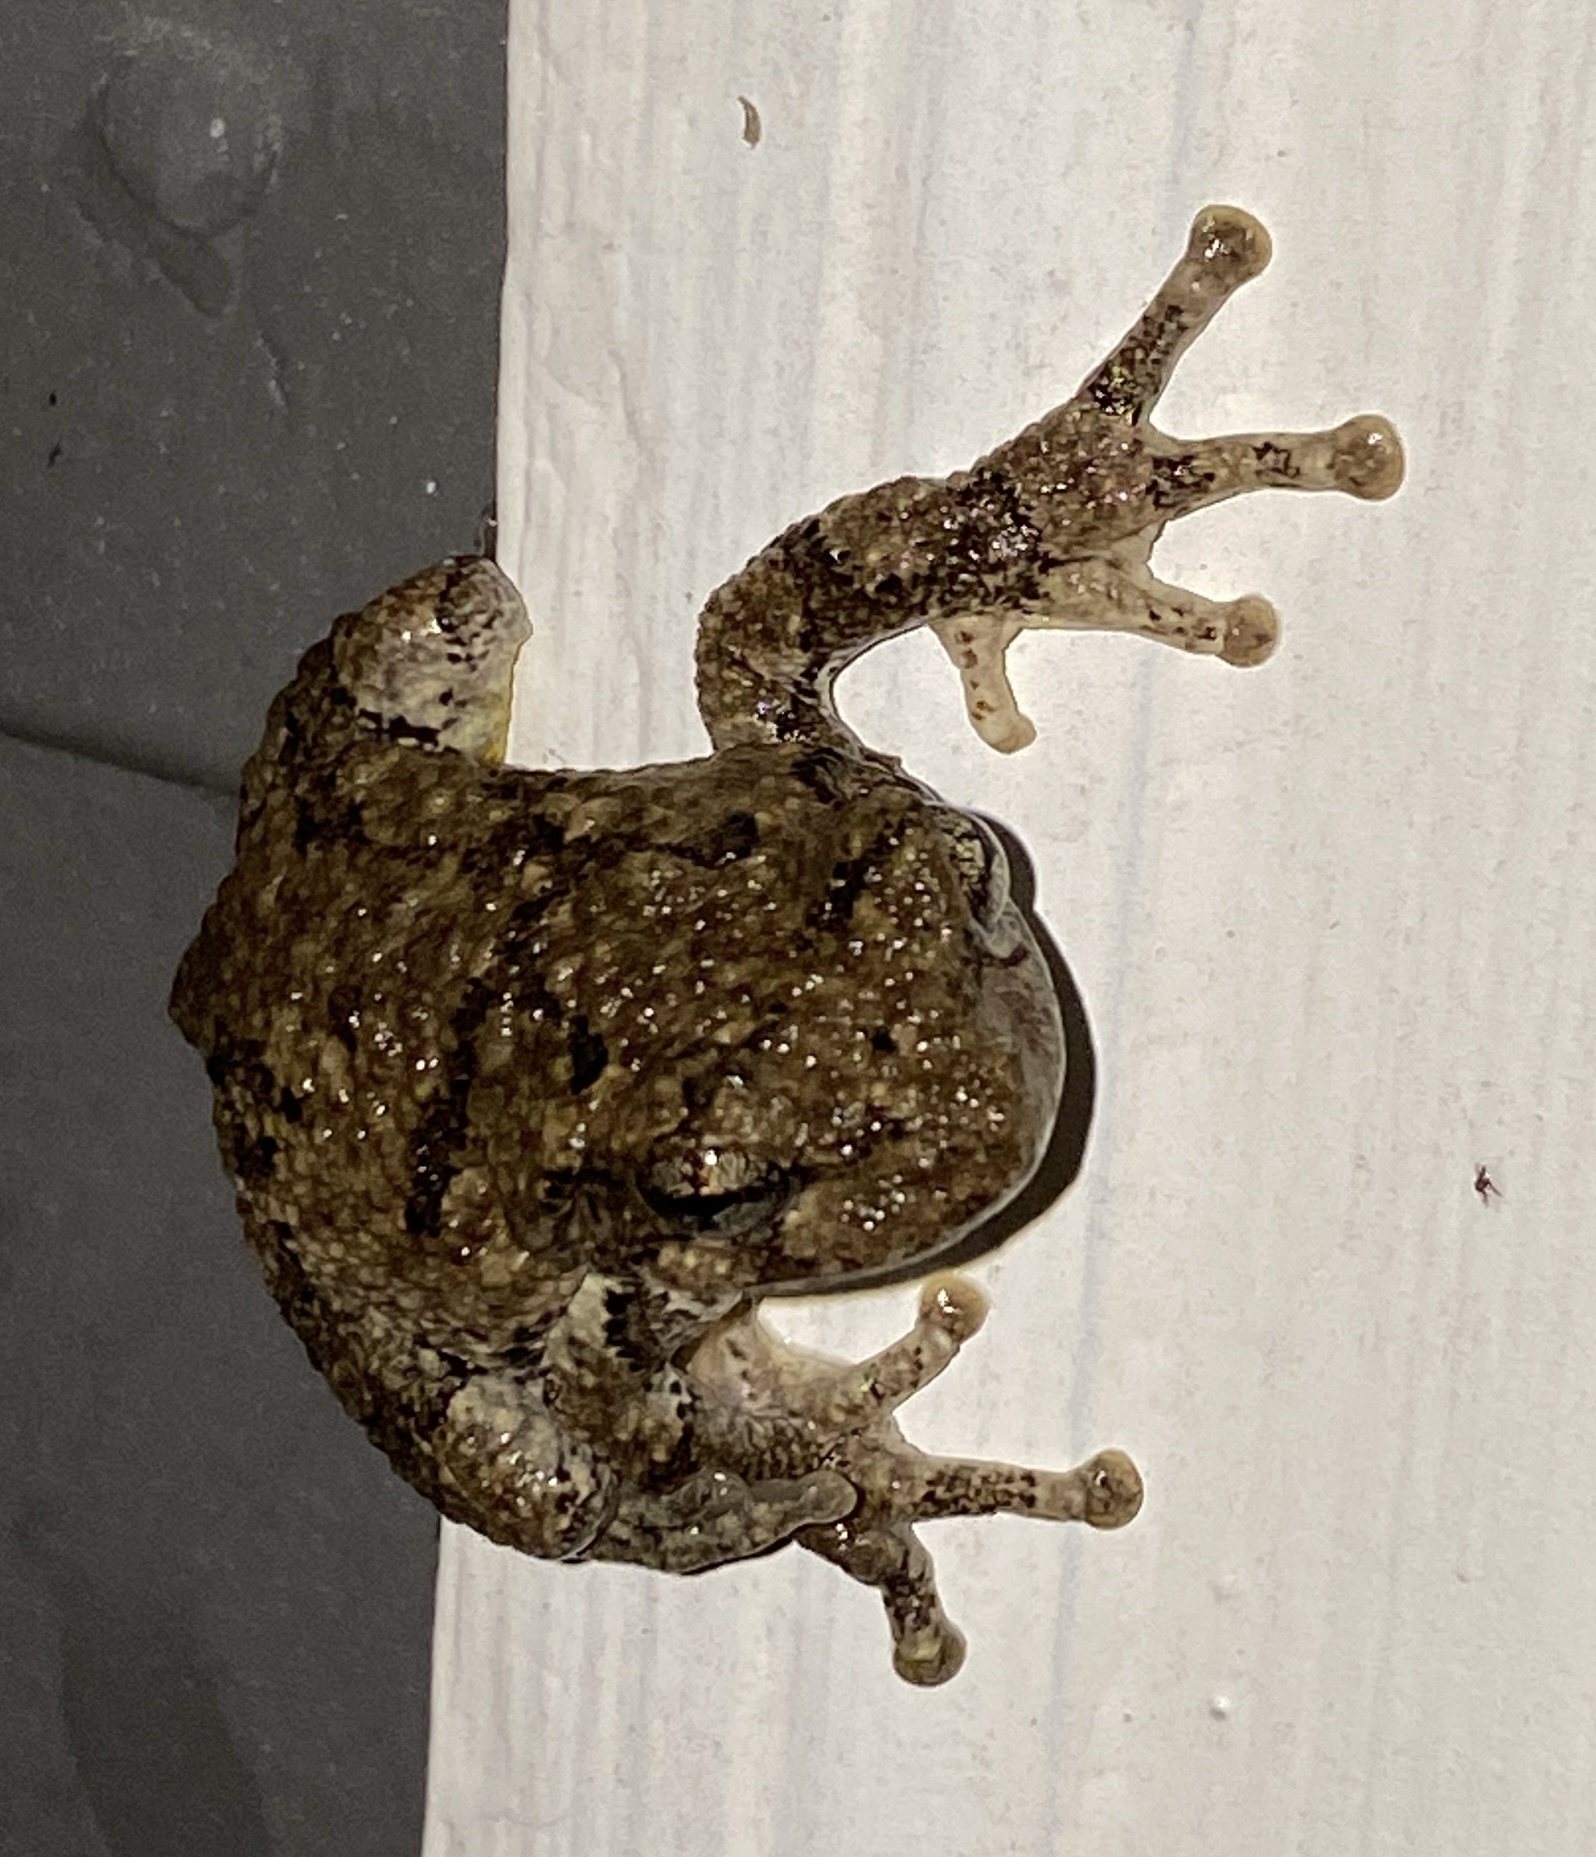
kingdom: Animalia
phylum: Chordata
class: Amphibia
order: Anura
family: Hylidae
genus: Dryophytes
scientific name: Dryophytes chrysoscelis
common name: Cope's gray treefrog
